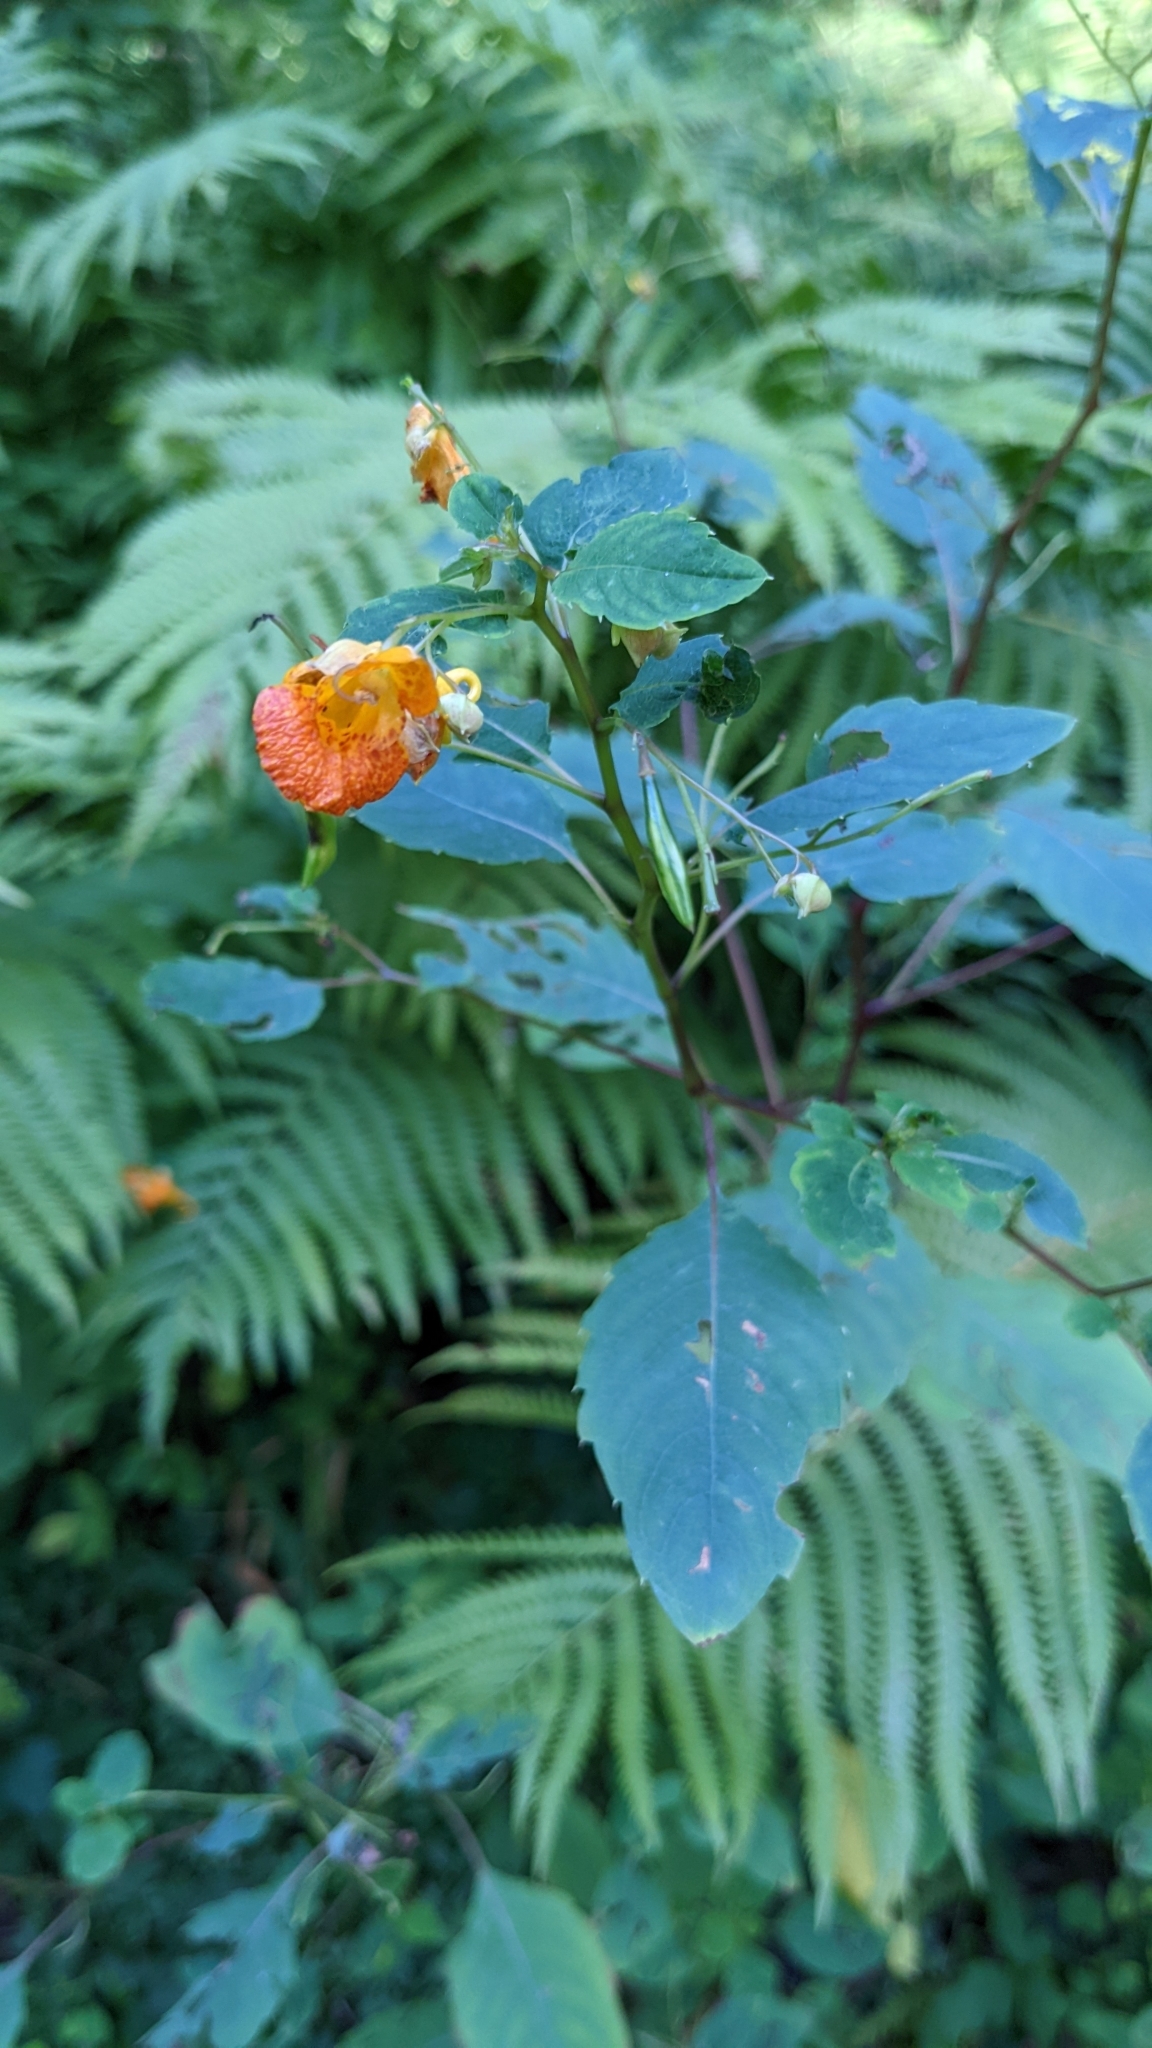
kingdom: Plantae
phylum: Tracheophyta
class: Magnoliopsida
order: Ericales
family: Balsaminaceae
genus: Impatiens
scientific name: Impatiens capensis
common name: Orange balsam
